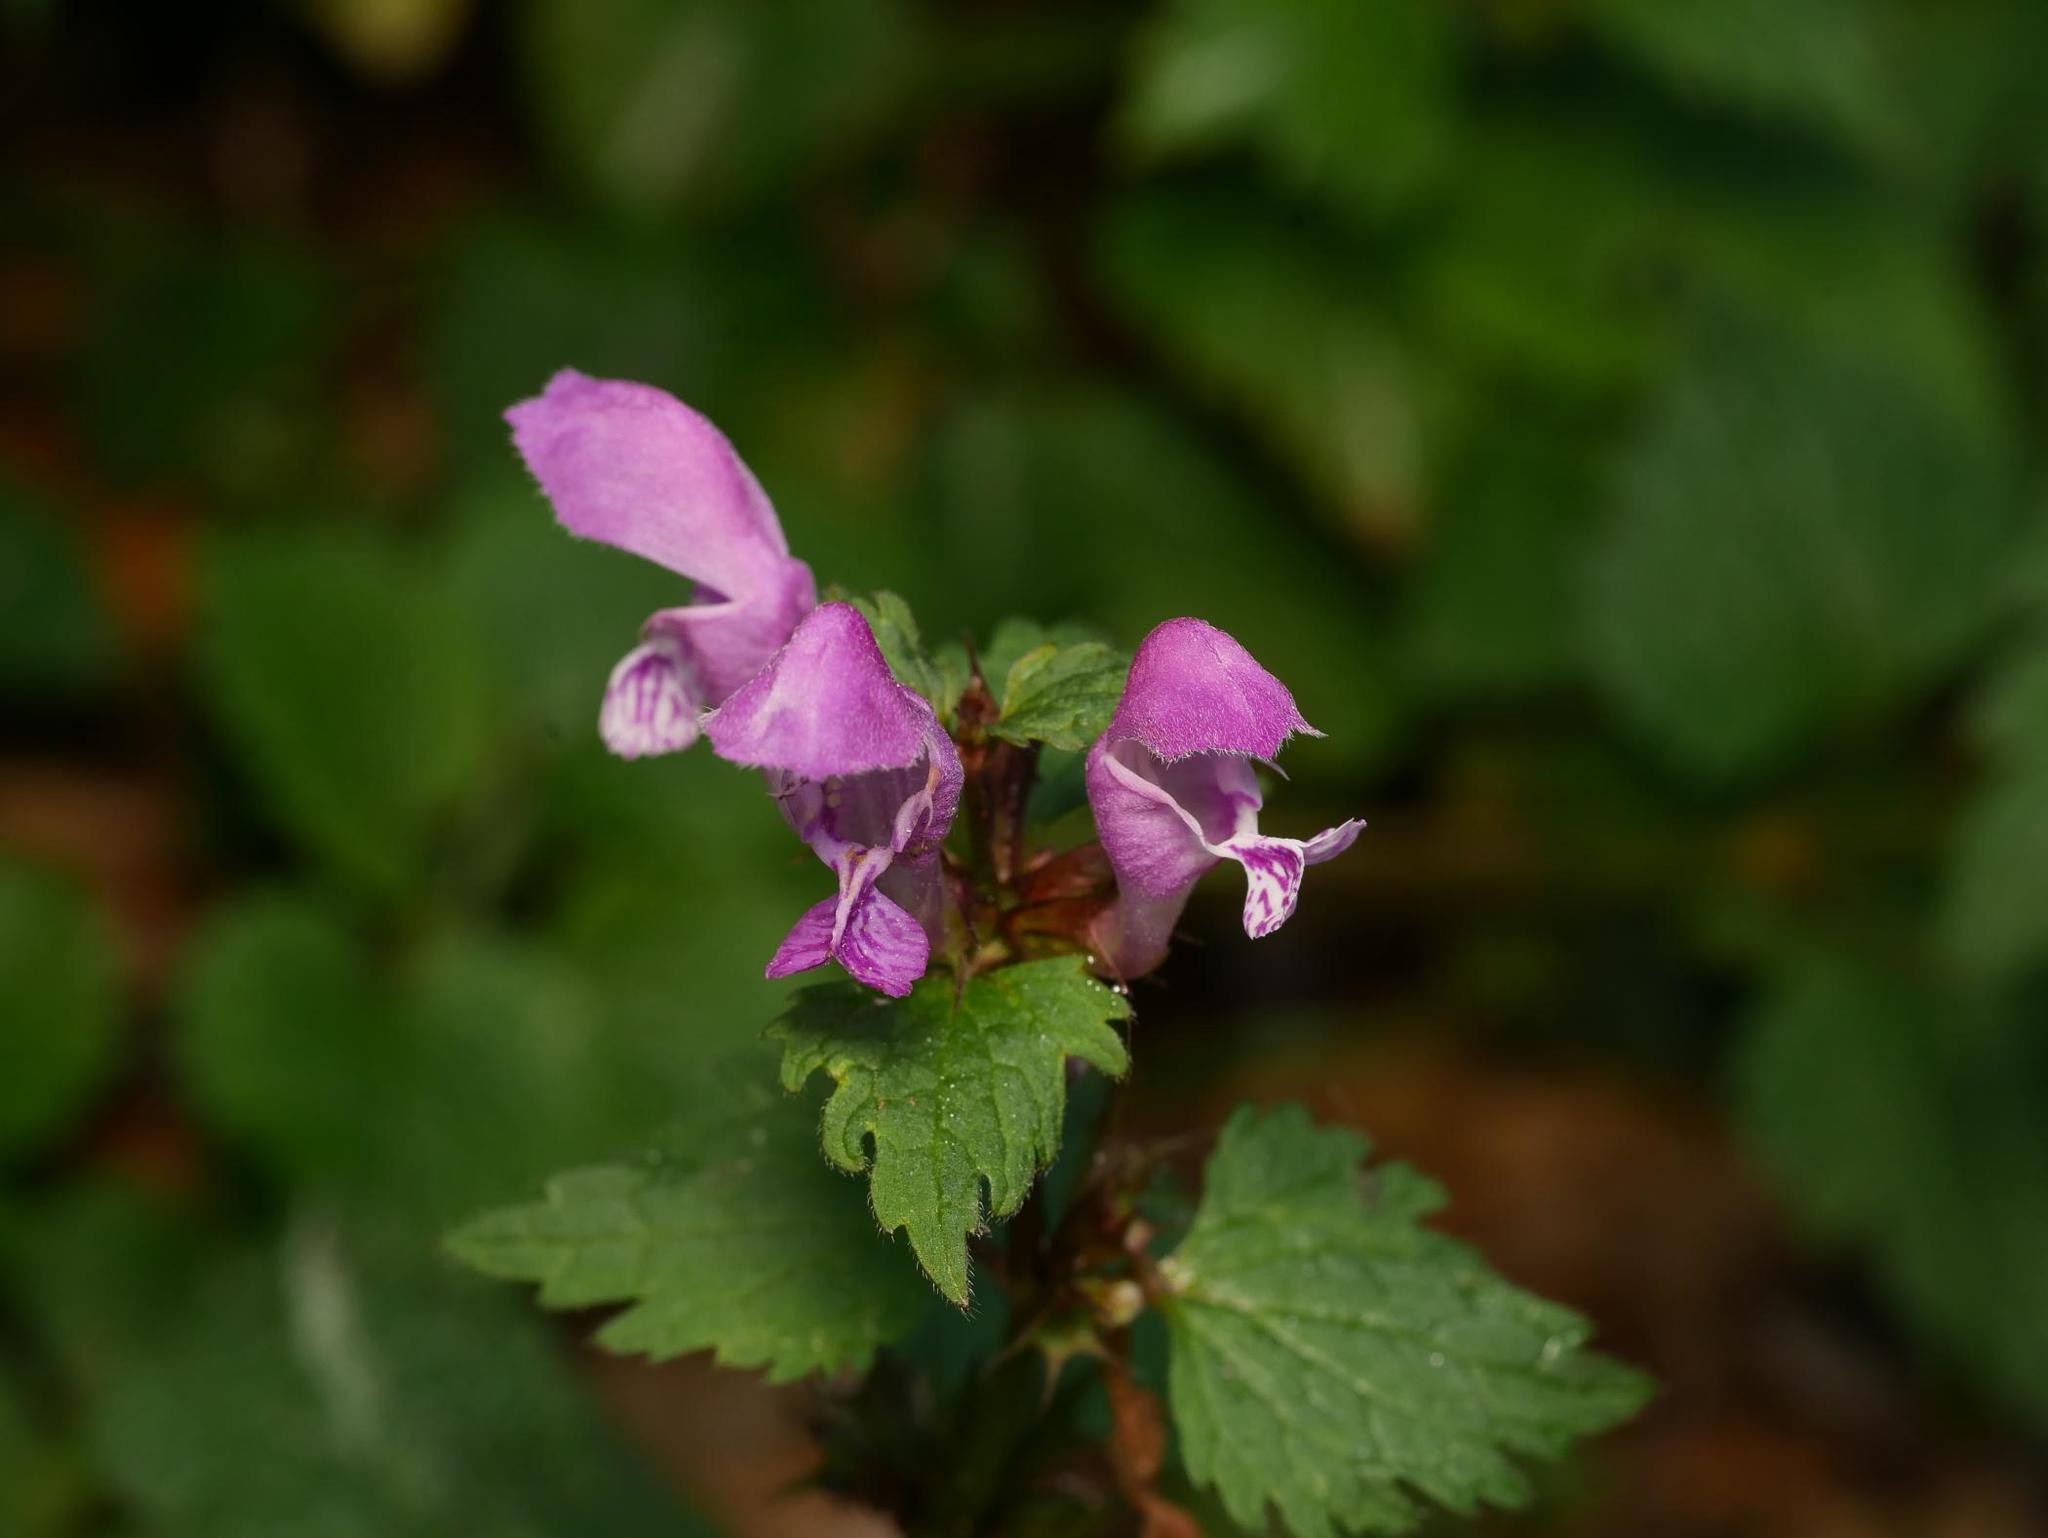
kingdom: Plantae
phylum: Tracheophyta
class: Magnoliopsida
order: Lamiales
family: Lamiaceae
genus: Lamium
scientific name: Lamium maculatum
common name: Spotted dead-nettle
